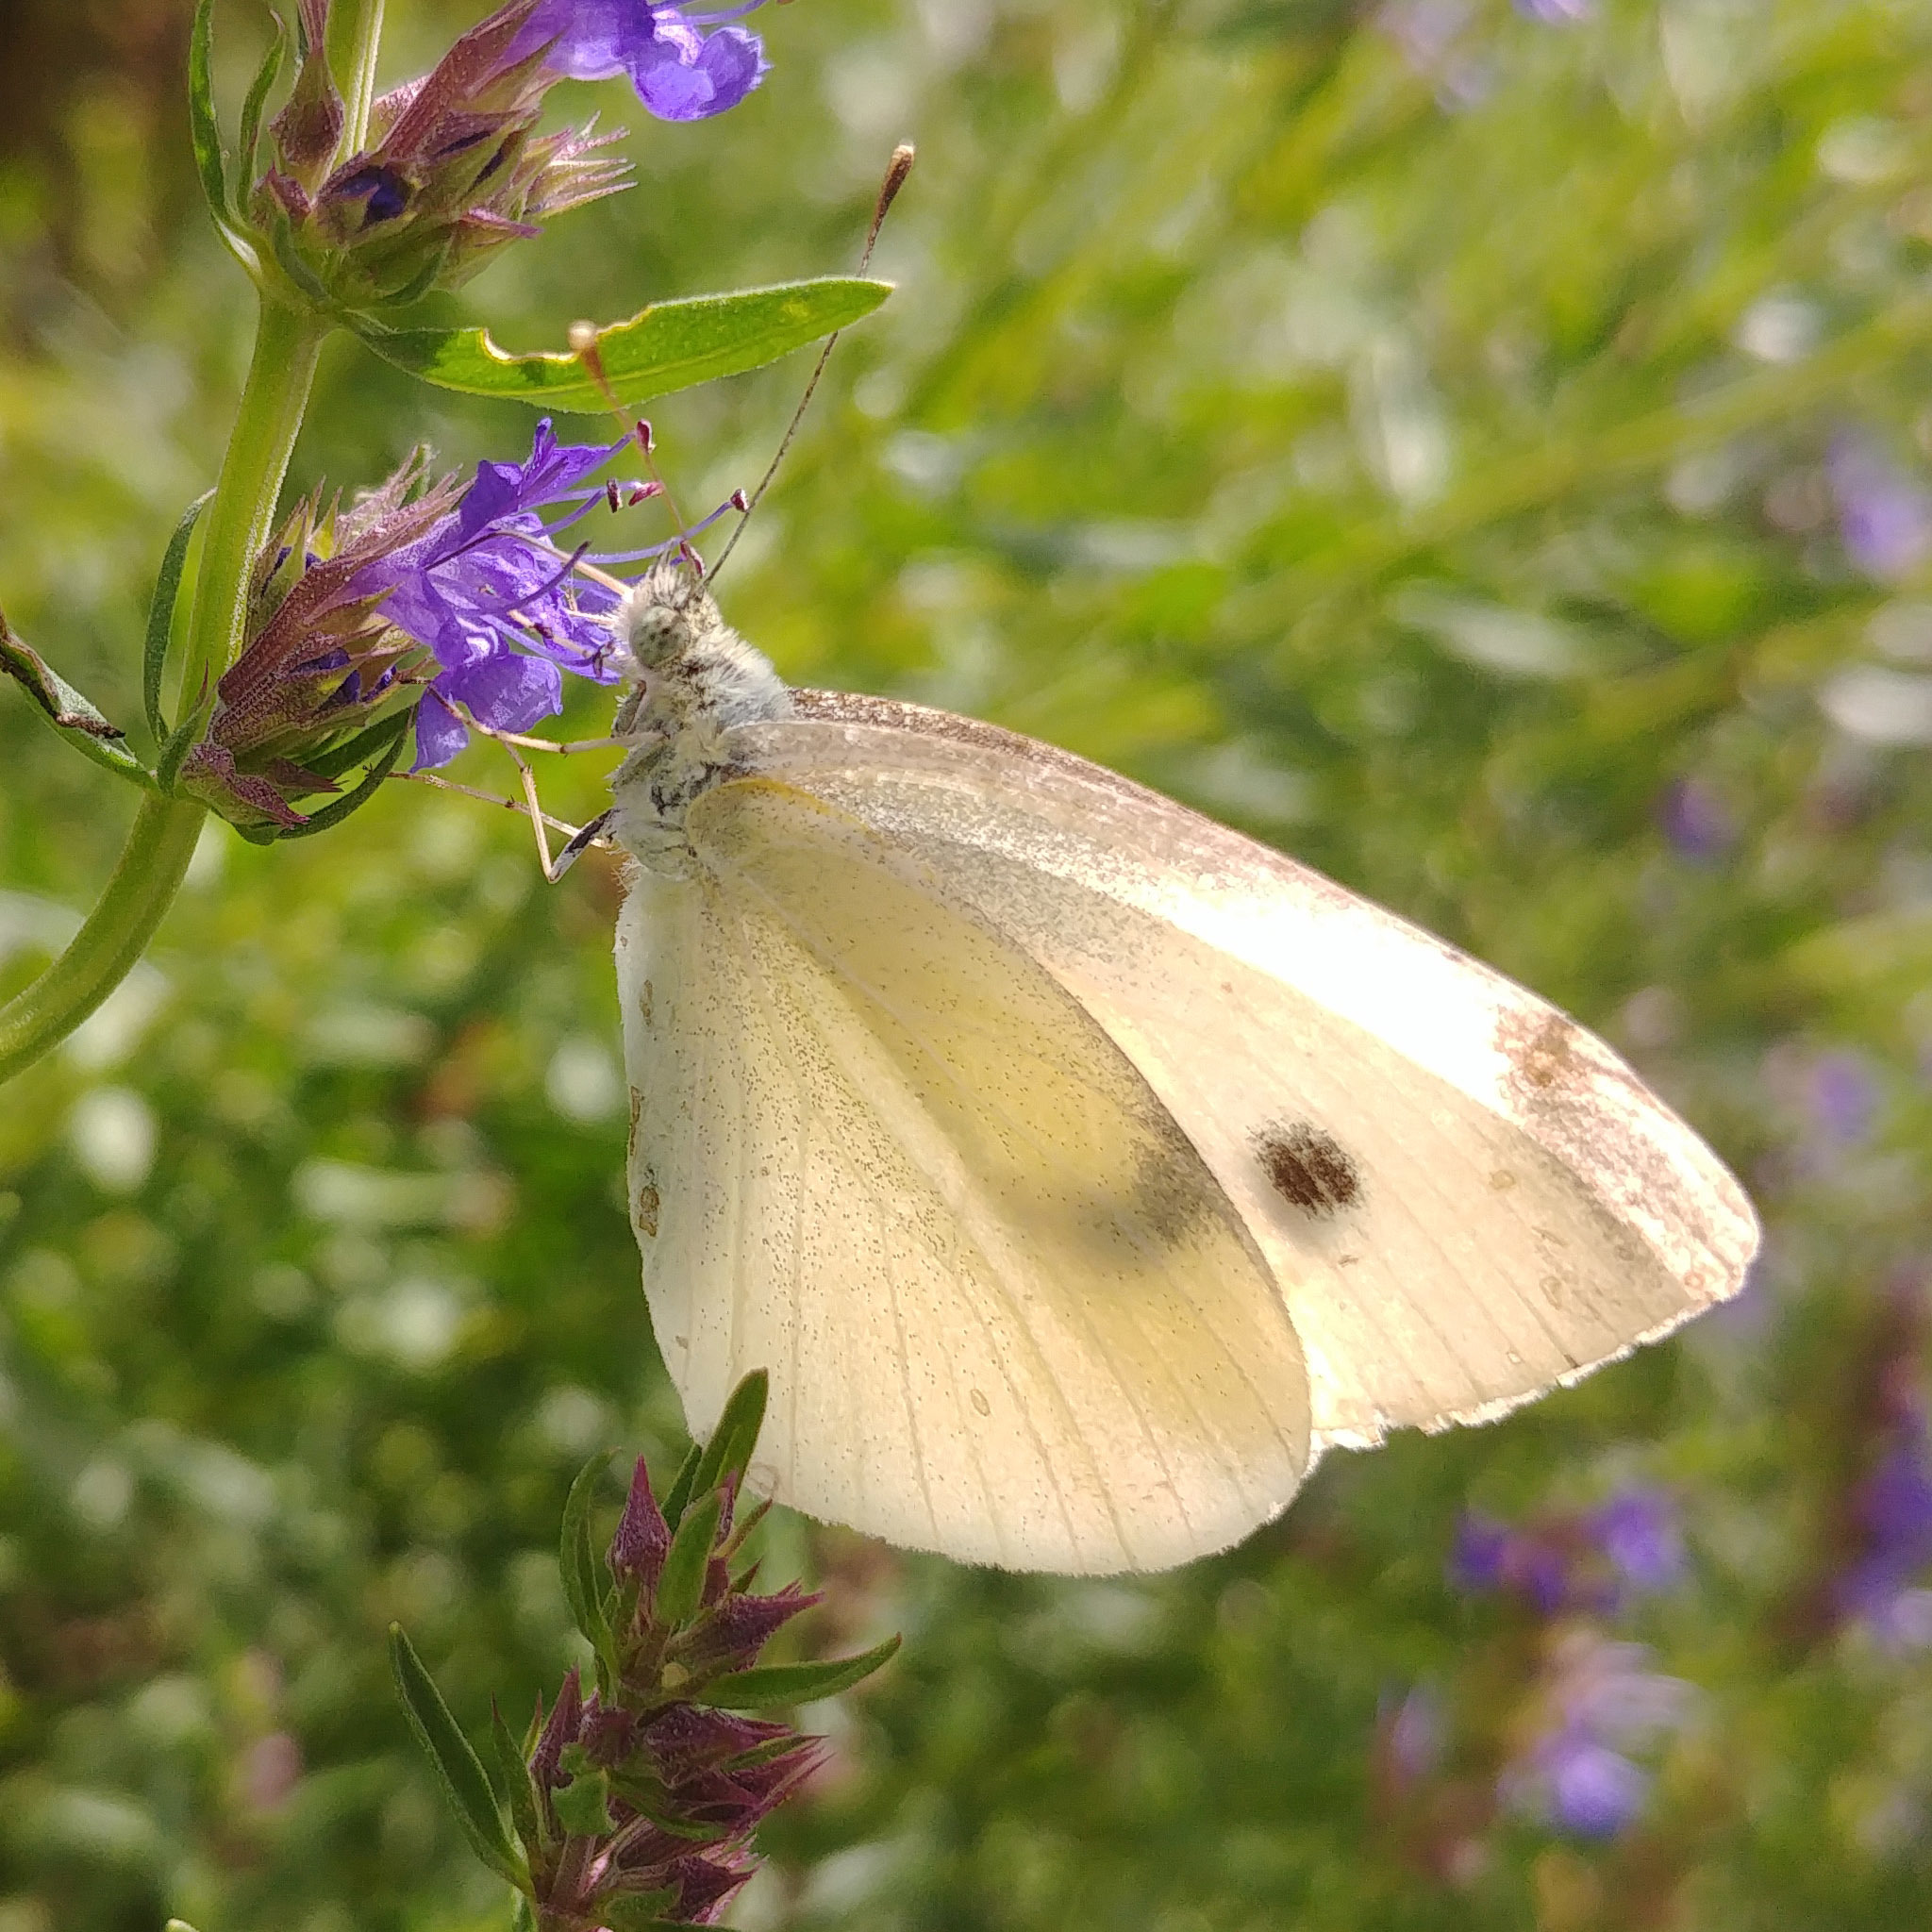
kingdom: Animalia
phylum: Arthropoda
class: Insecta
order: Lepidoptera
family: Pieridae
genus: Pieris
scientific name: Pieris rapae
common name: Small white
